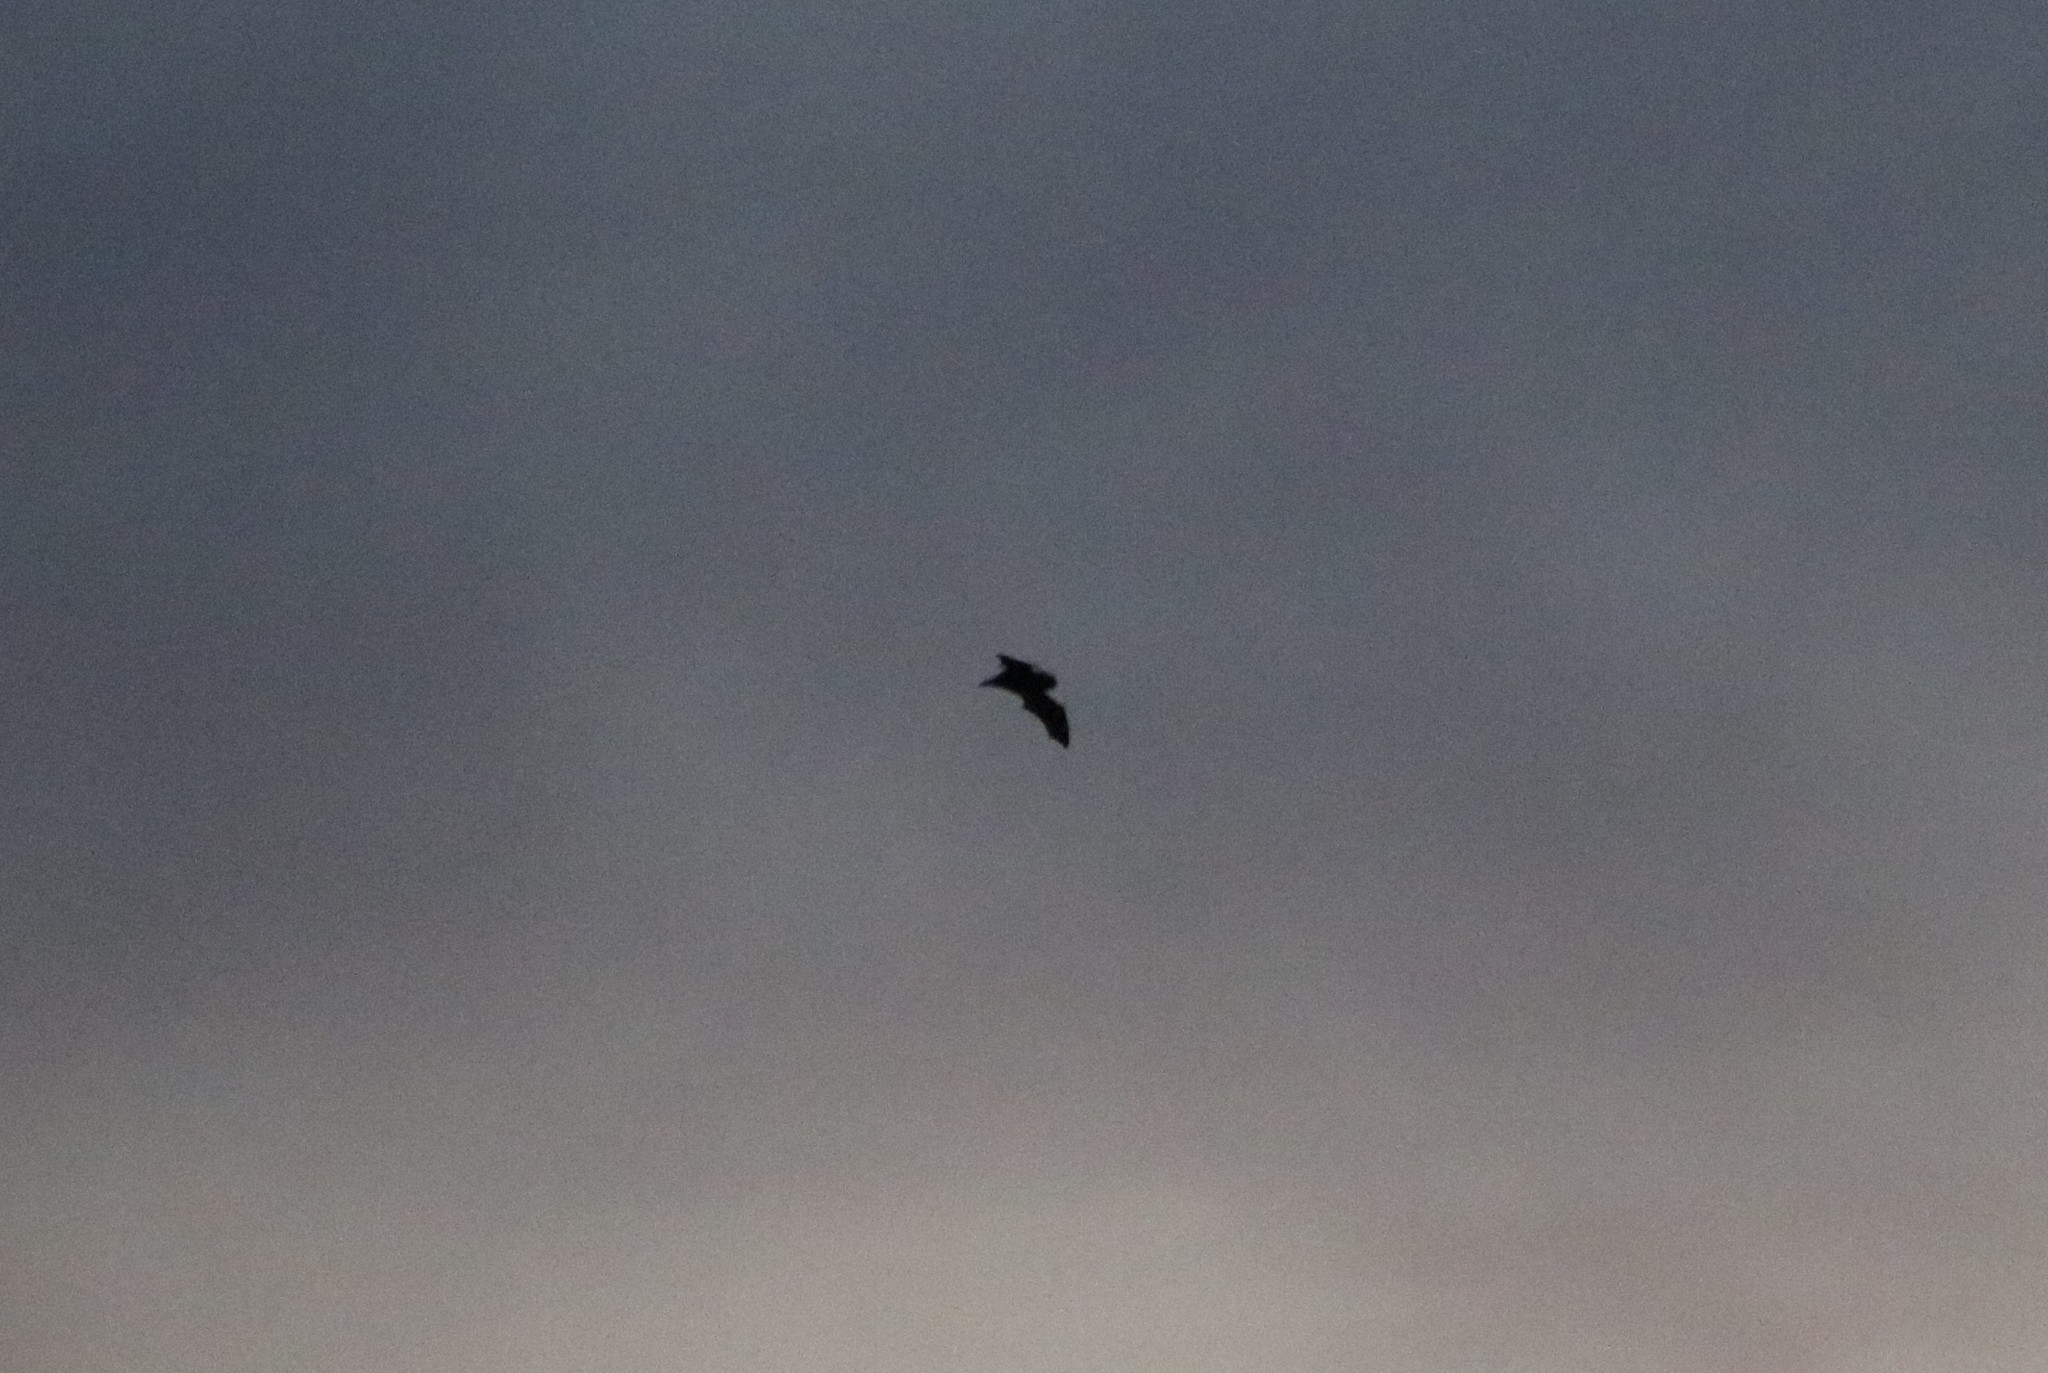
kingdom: Animalia
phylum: Chordata
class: Mammalia
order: Chiroptera
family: Vespertilionidae
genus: Chalinolobus
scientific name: Chalinolobus tuberculatus
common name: Long-tailed wattled bat
